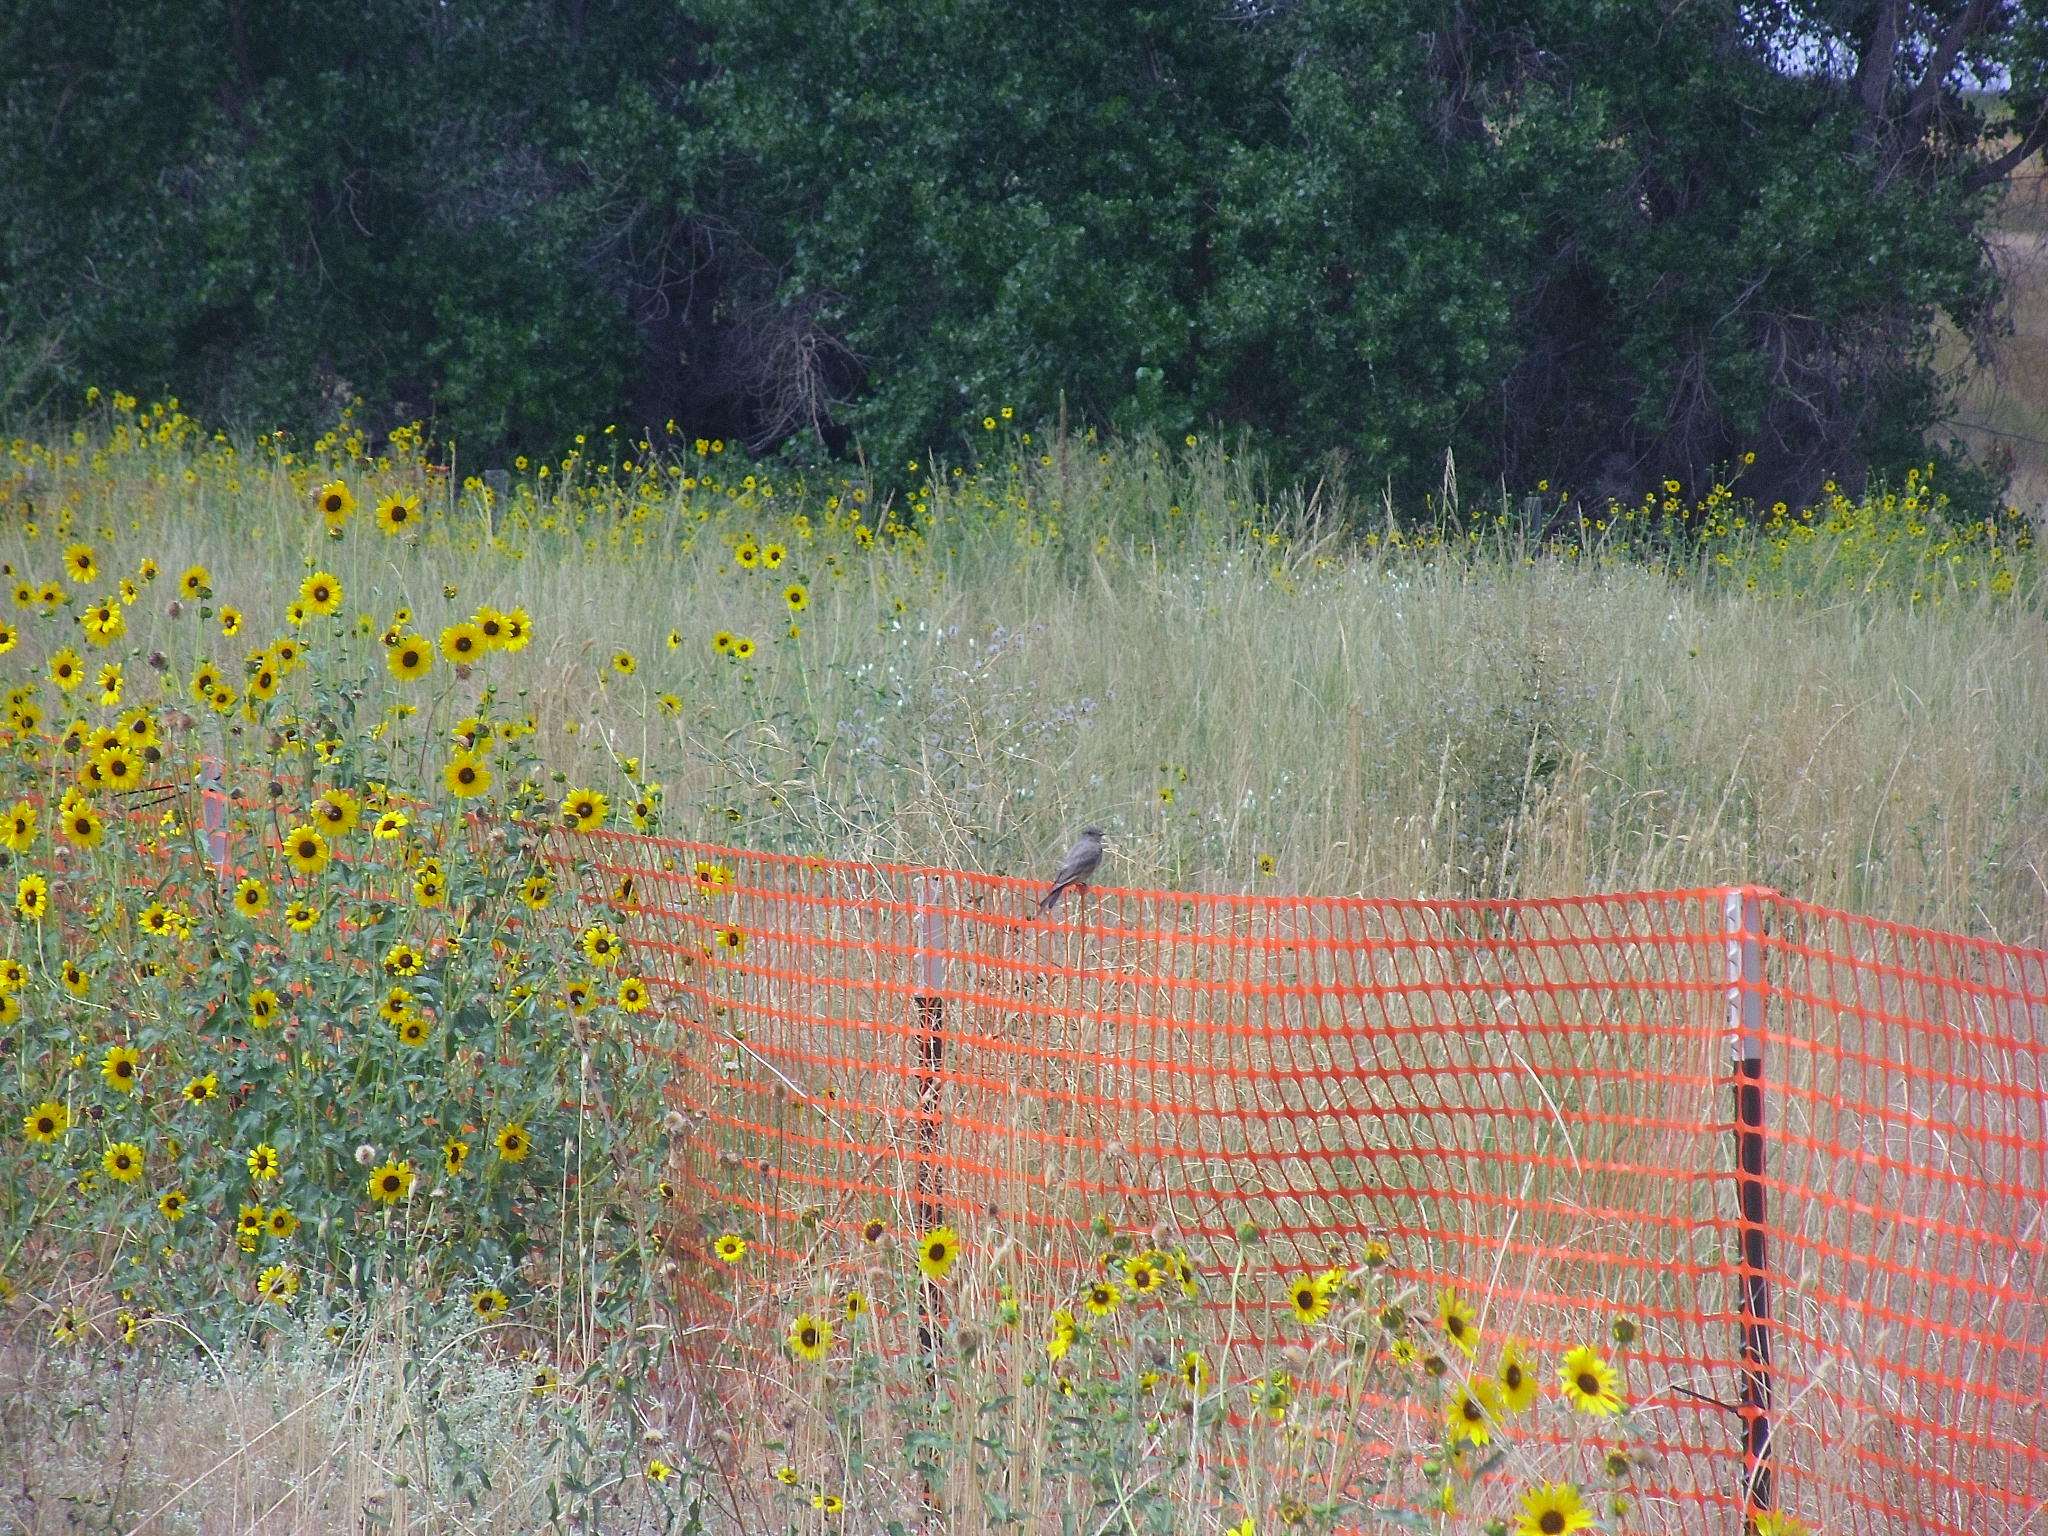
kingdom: Animalia
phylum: Chordata
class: Aves
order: Passeriformes
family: Tyrannidae
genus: Sayornis
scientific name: Sayornis saya
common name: Say's phoebe
